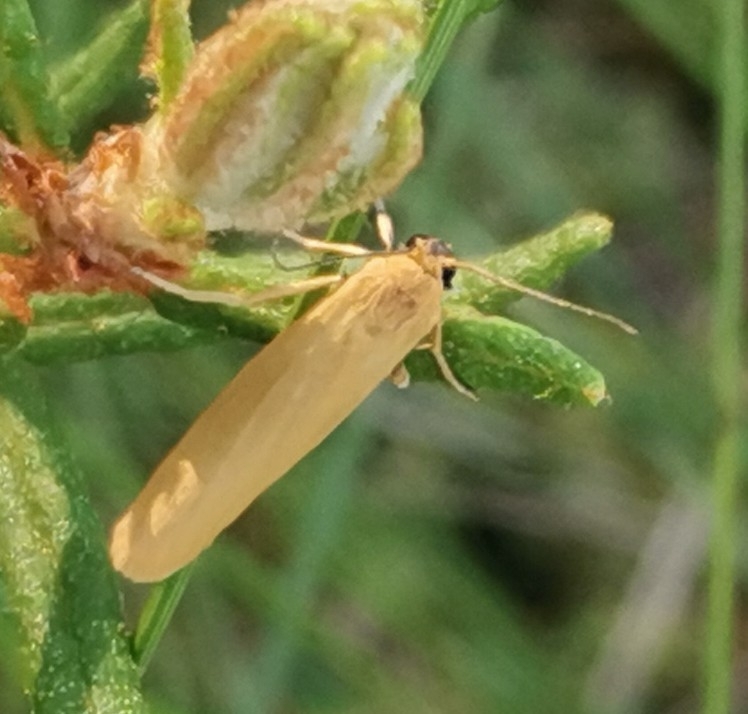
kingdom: Animalia
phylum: Arthropoda
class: Insecta
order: Lepidoptera
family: Erebidae
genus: Indalia
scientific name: Indalia lutarella
